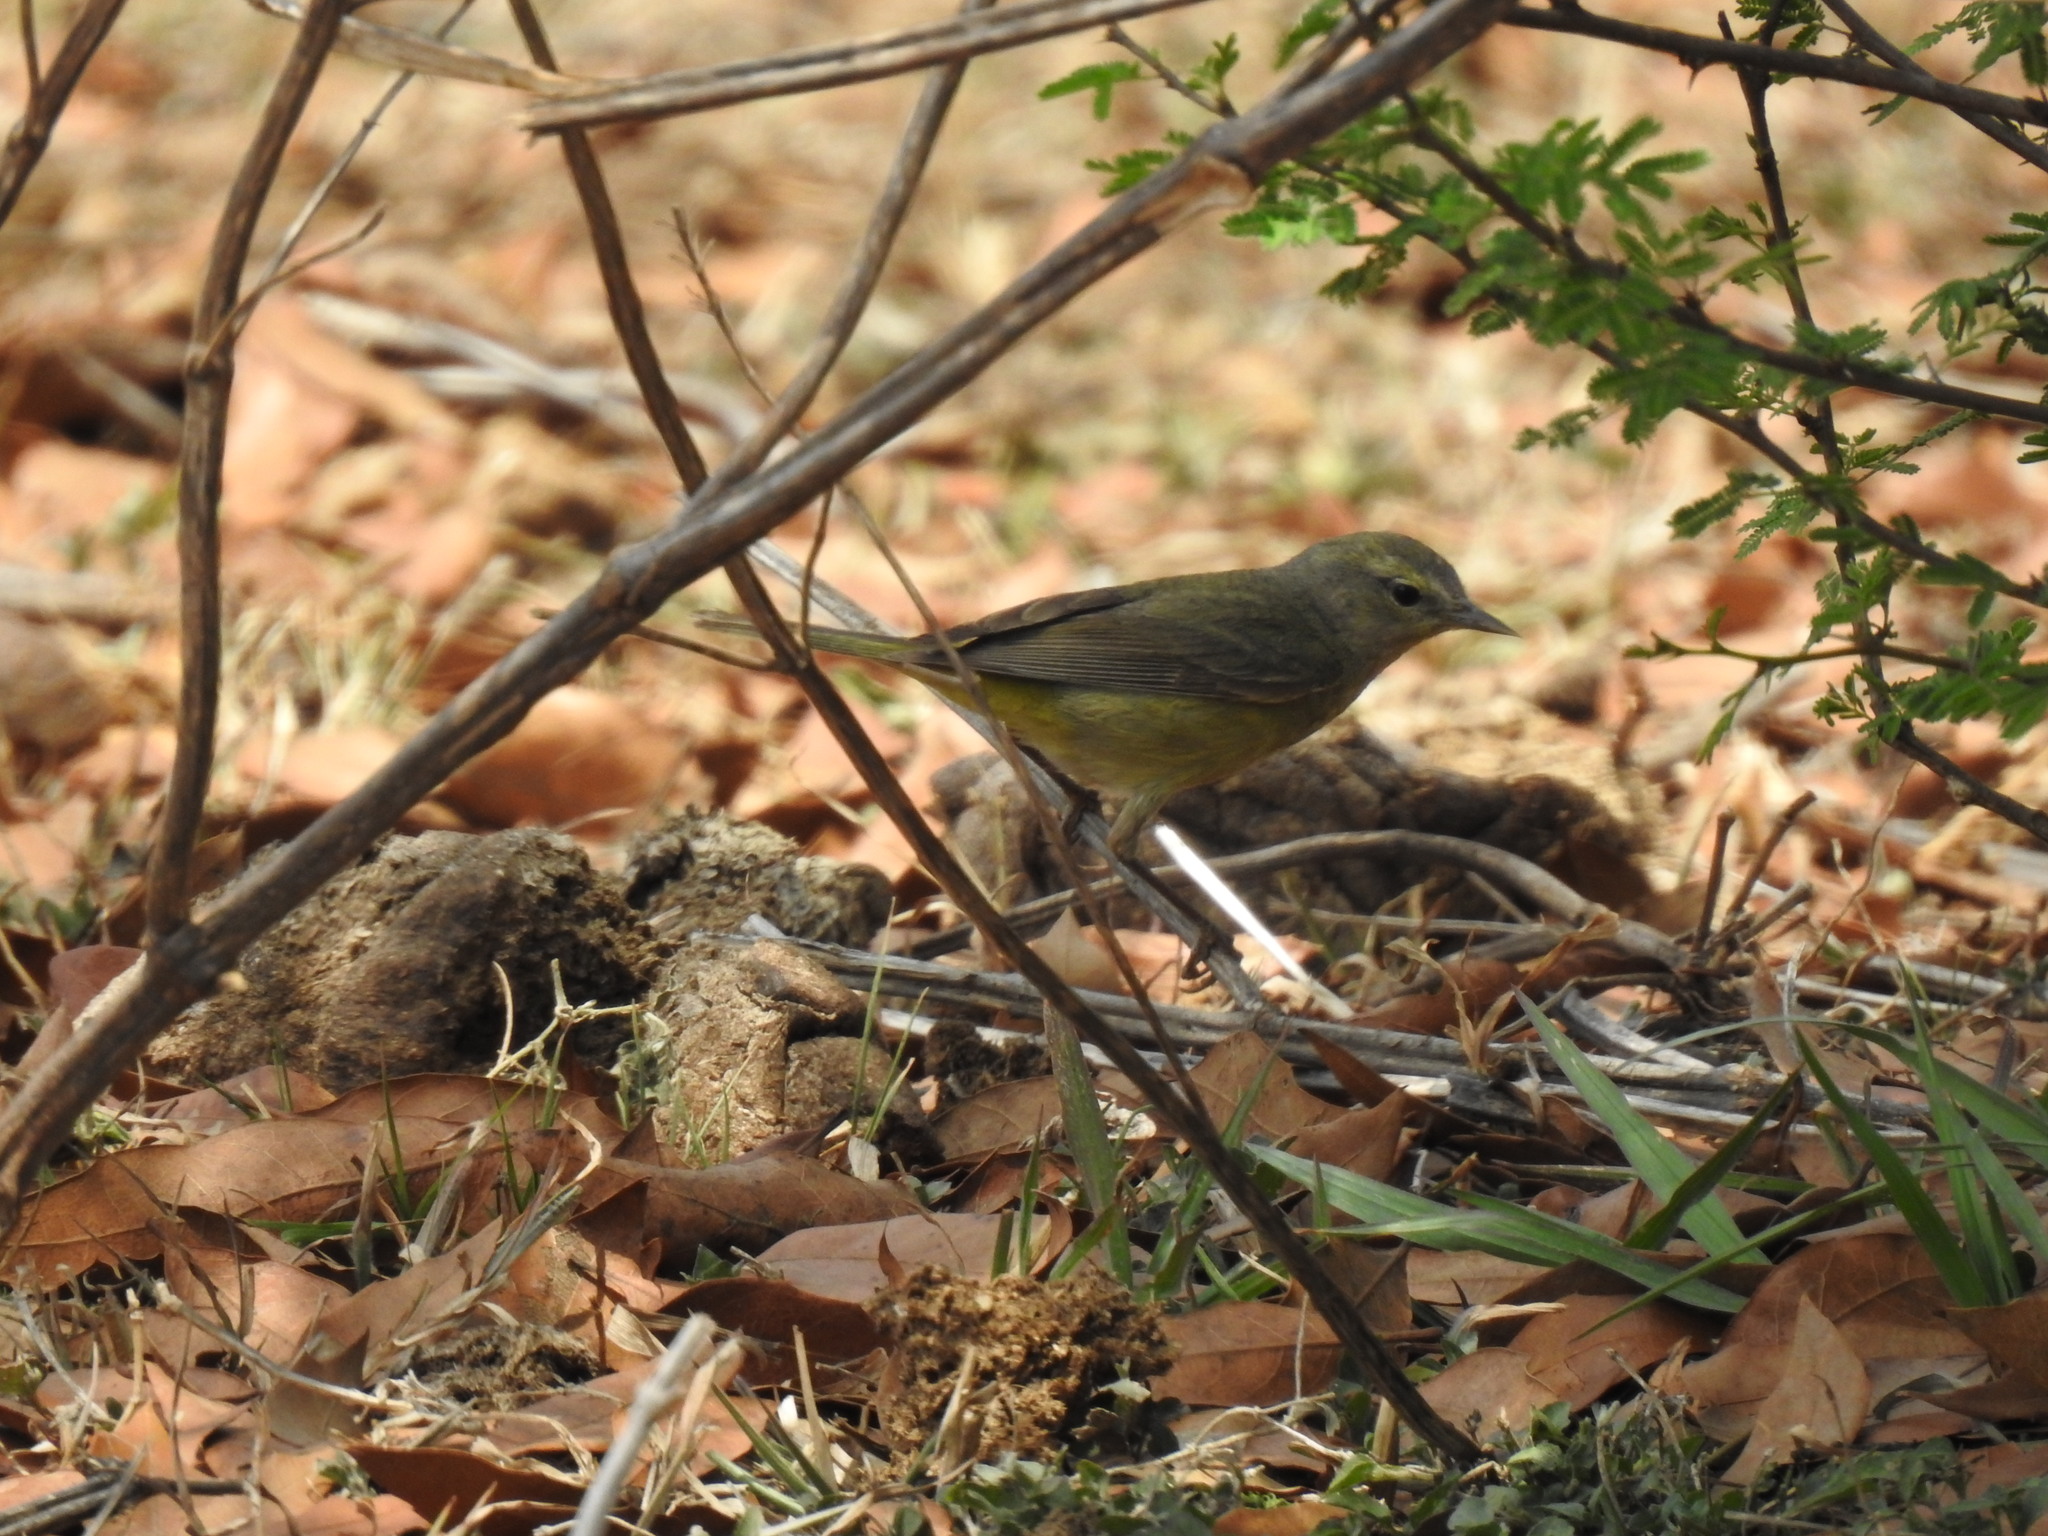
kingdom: Animalia
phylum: Chordata
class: Aves
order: Passeriformes
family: Parulidae
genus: Leiothlypis
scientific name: Leiothlypis celata
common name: Orange-crowned warbler
